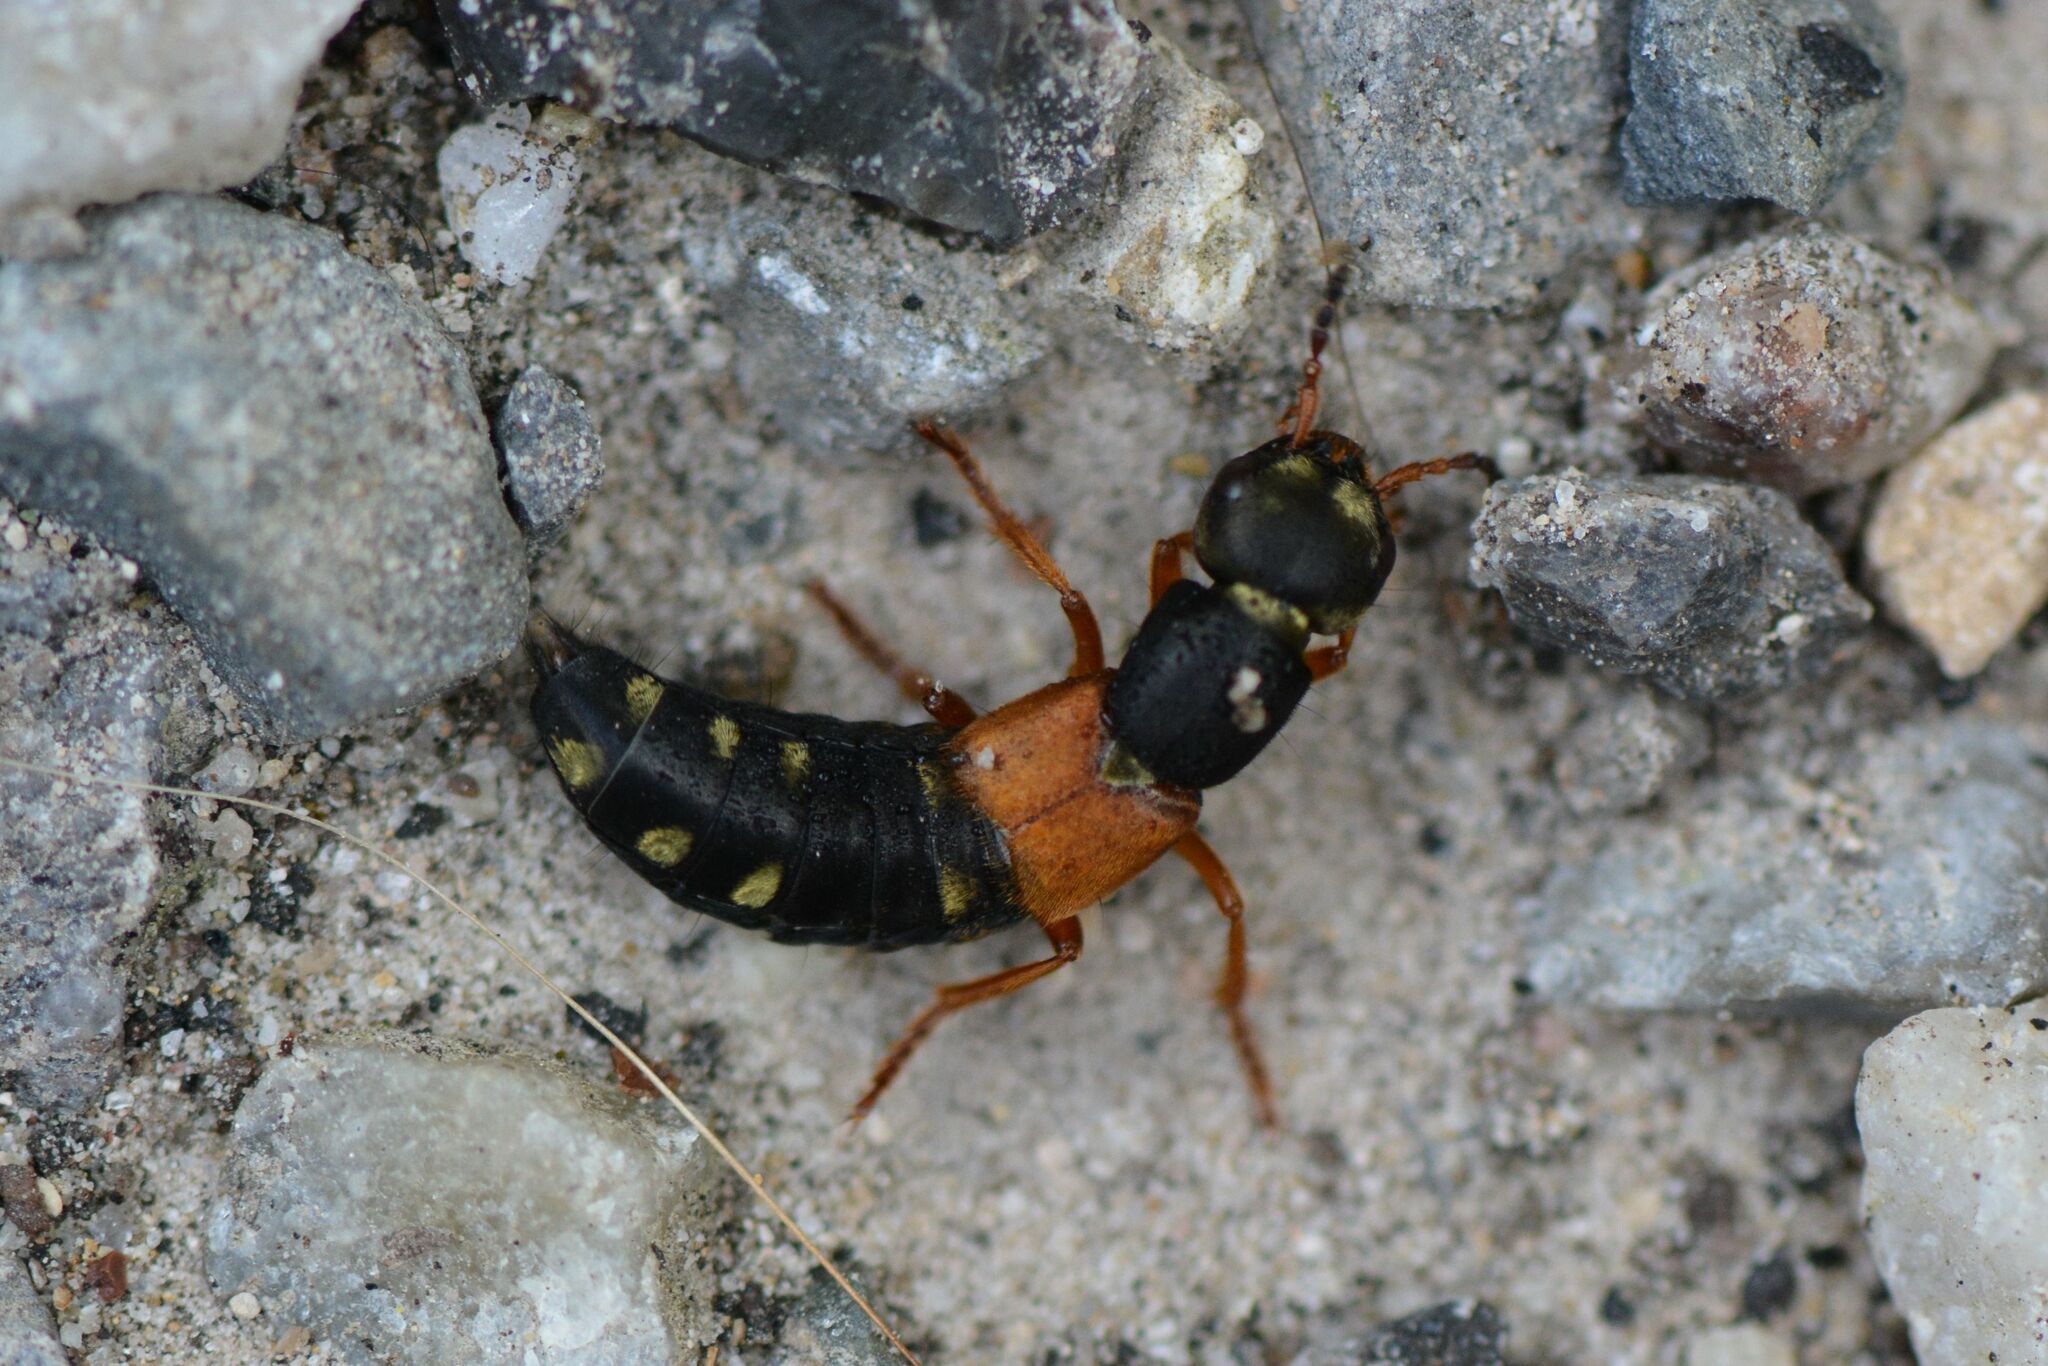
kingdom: Animalia
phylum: Arthropoda
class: Insecta
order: Coleoptera
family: Staphylinidae
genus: Staphylinus
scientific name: Staphylinus erythropterus
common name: Staph beetle
